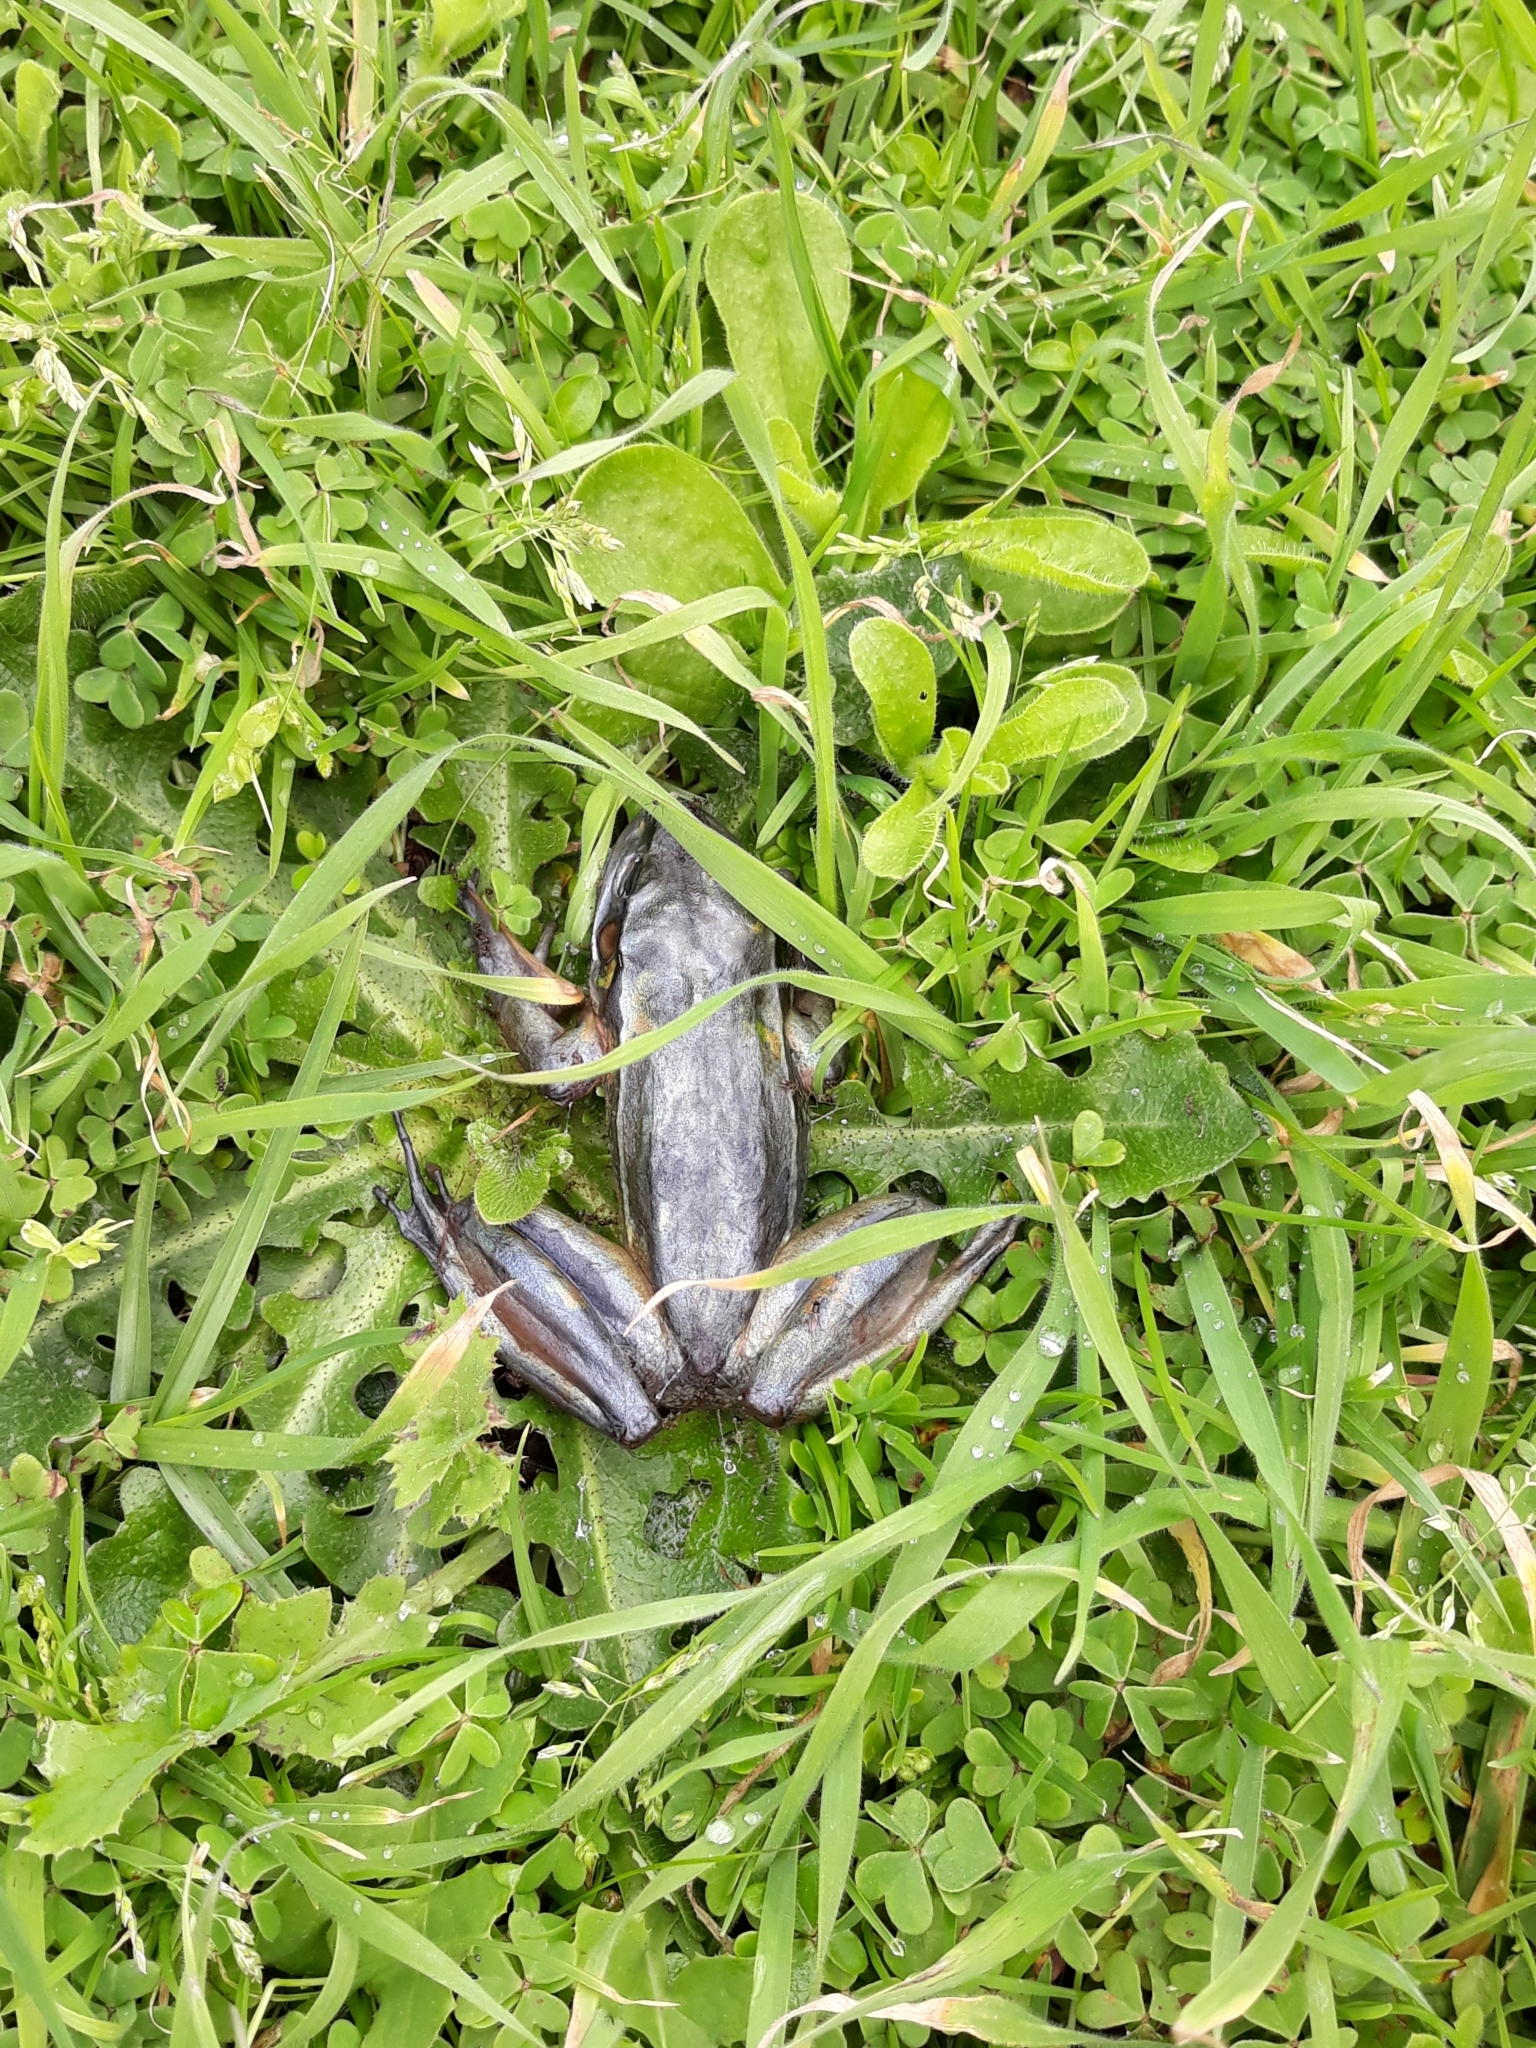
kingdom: Animalia
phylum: Chordata
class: Amphibia
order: Anura
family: Pelodryadidae
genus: Ranoidea
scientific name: Ranoidea aurea
